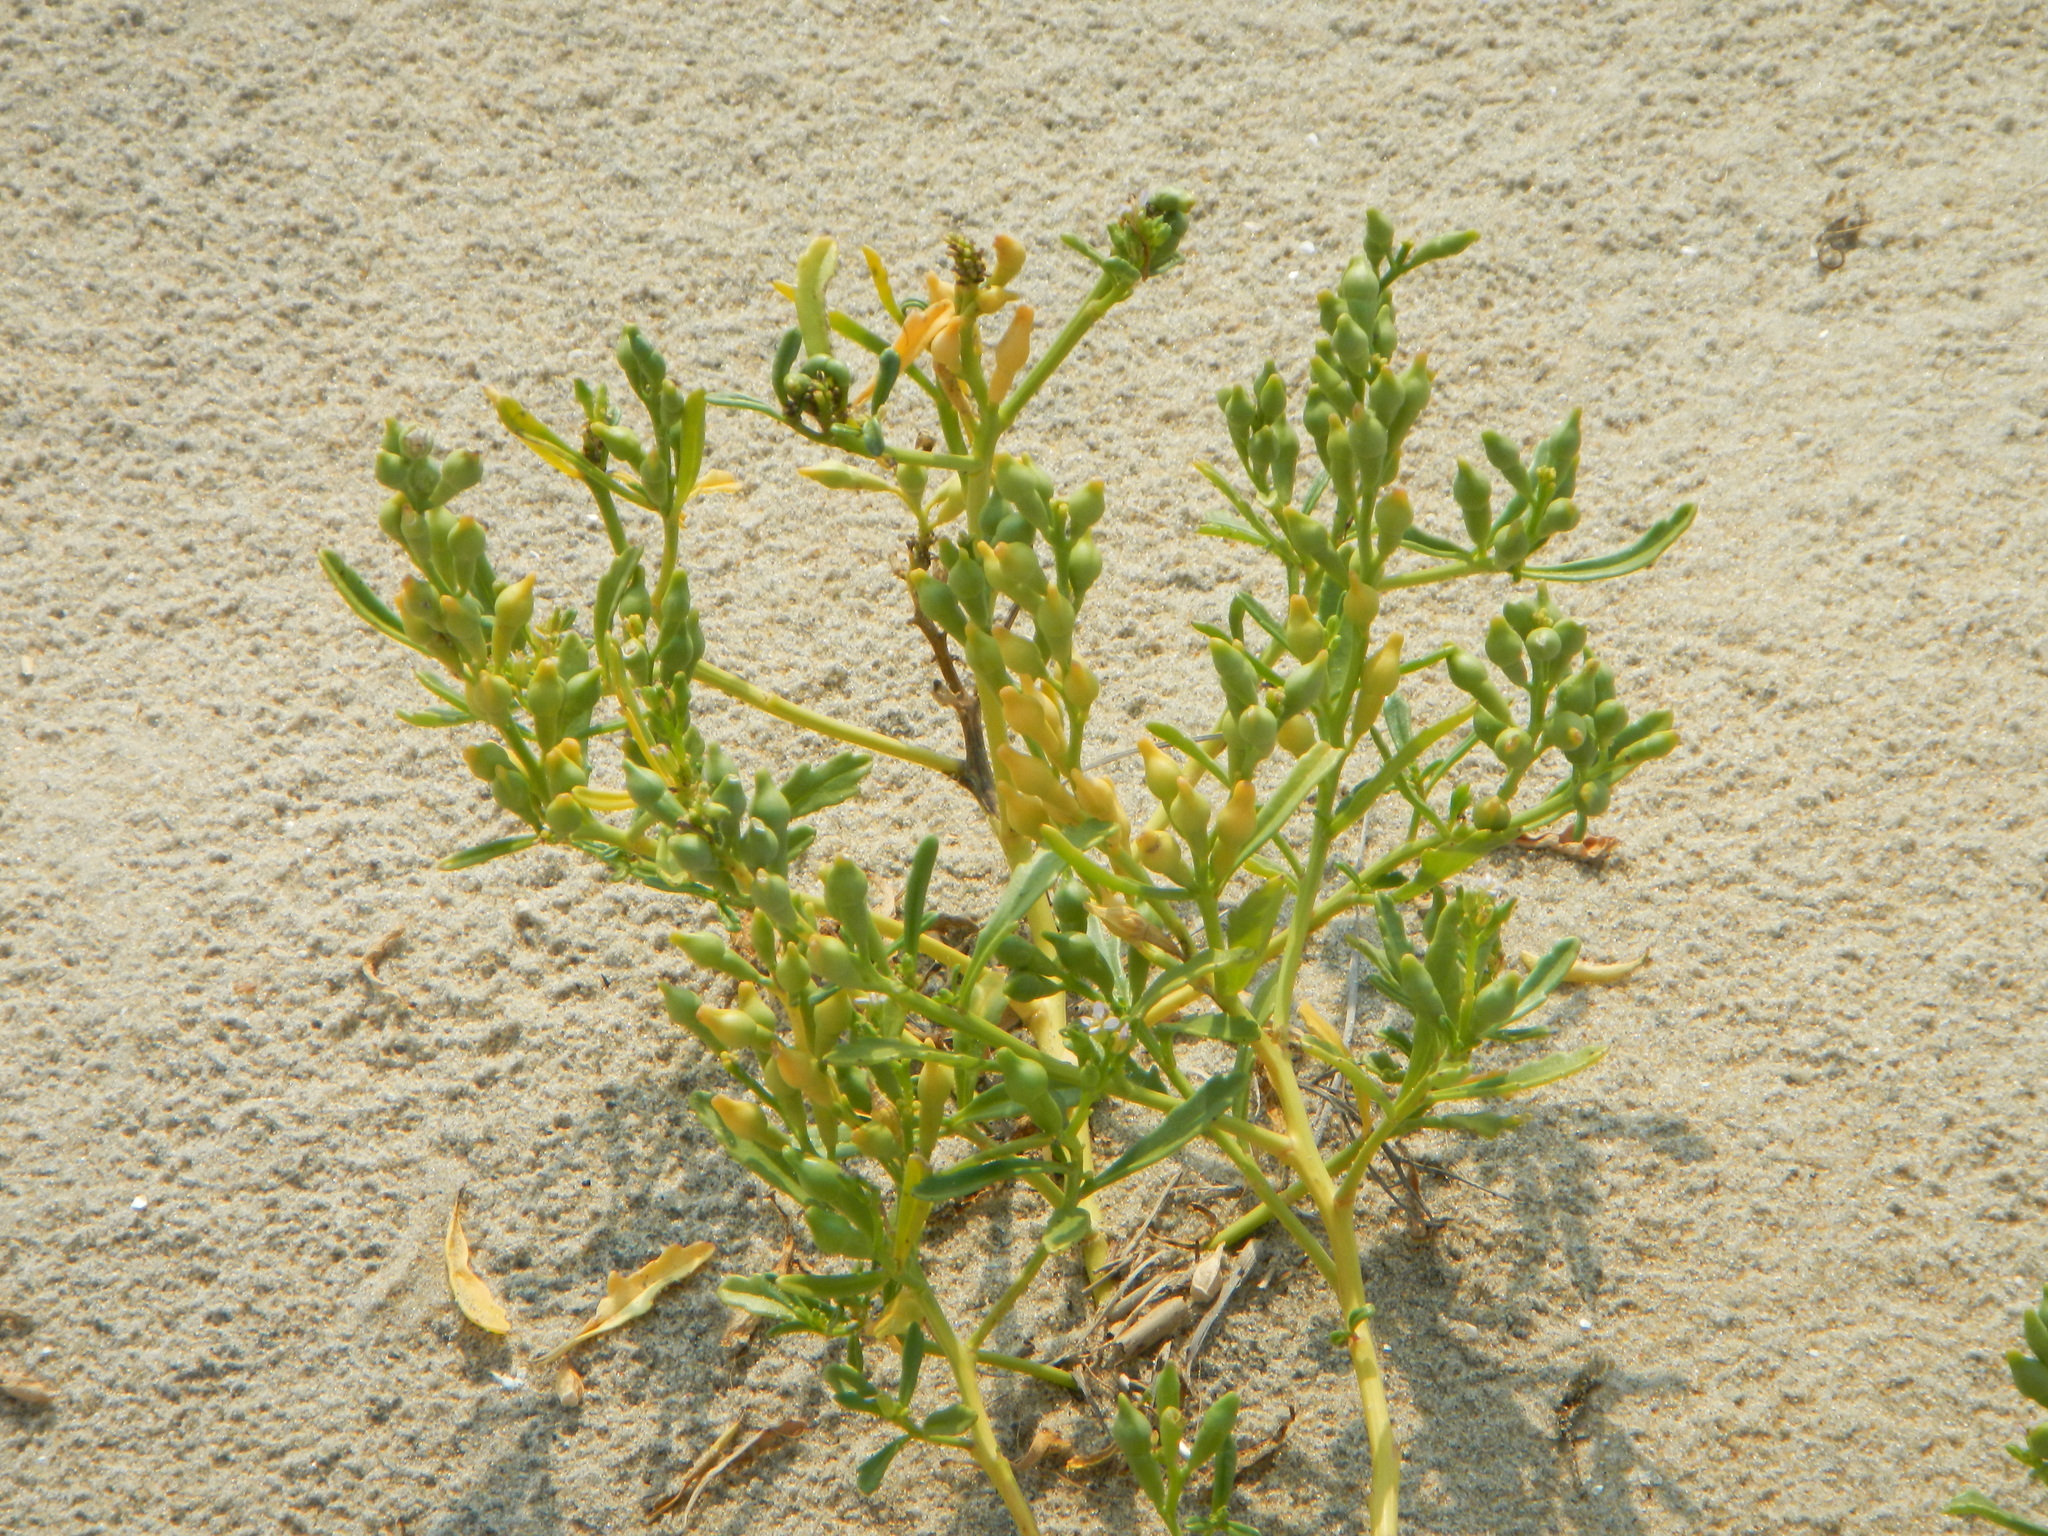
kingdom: Plantae
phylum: Tracheophyta
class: Magnoliopsida
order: Brassicales
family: Brassicaceae
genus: Cakile
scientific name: Cakile edentula
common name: American sea rocket
